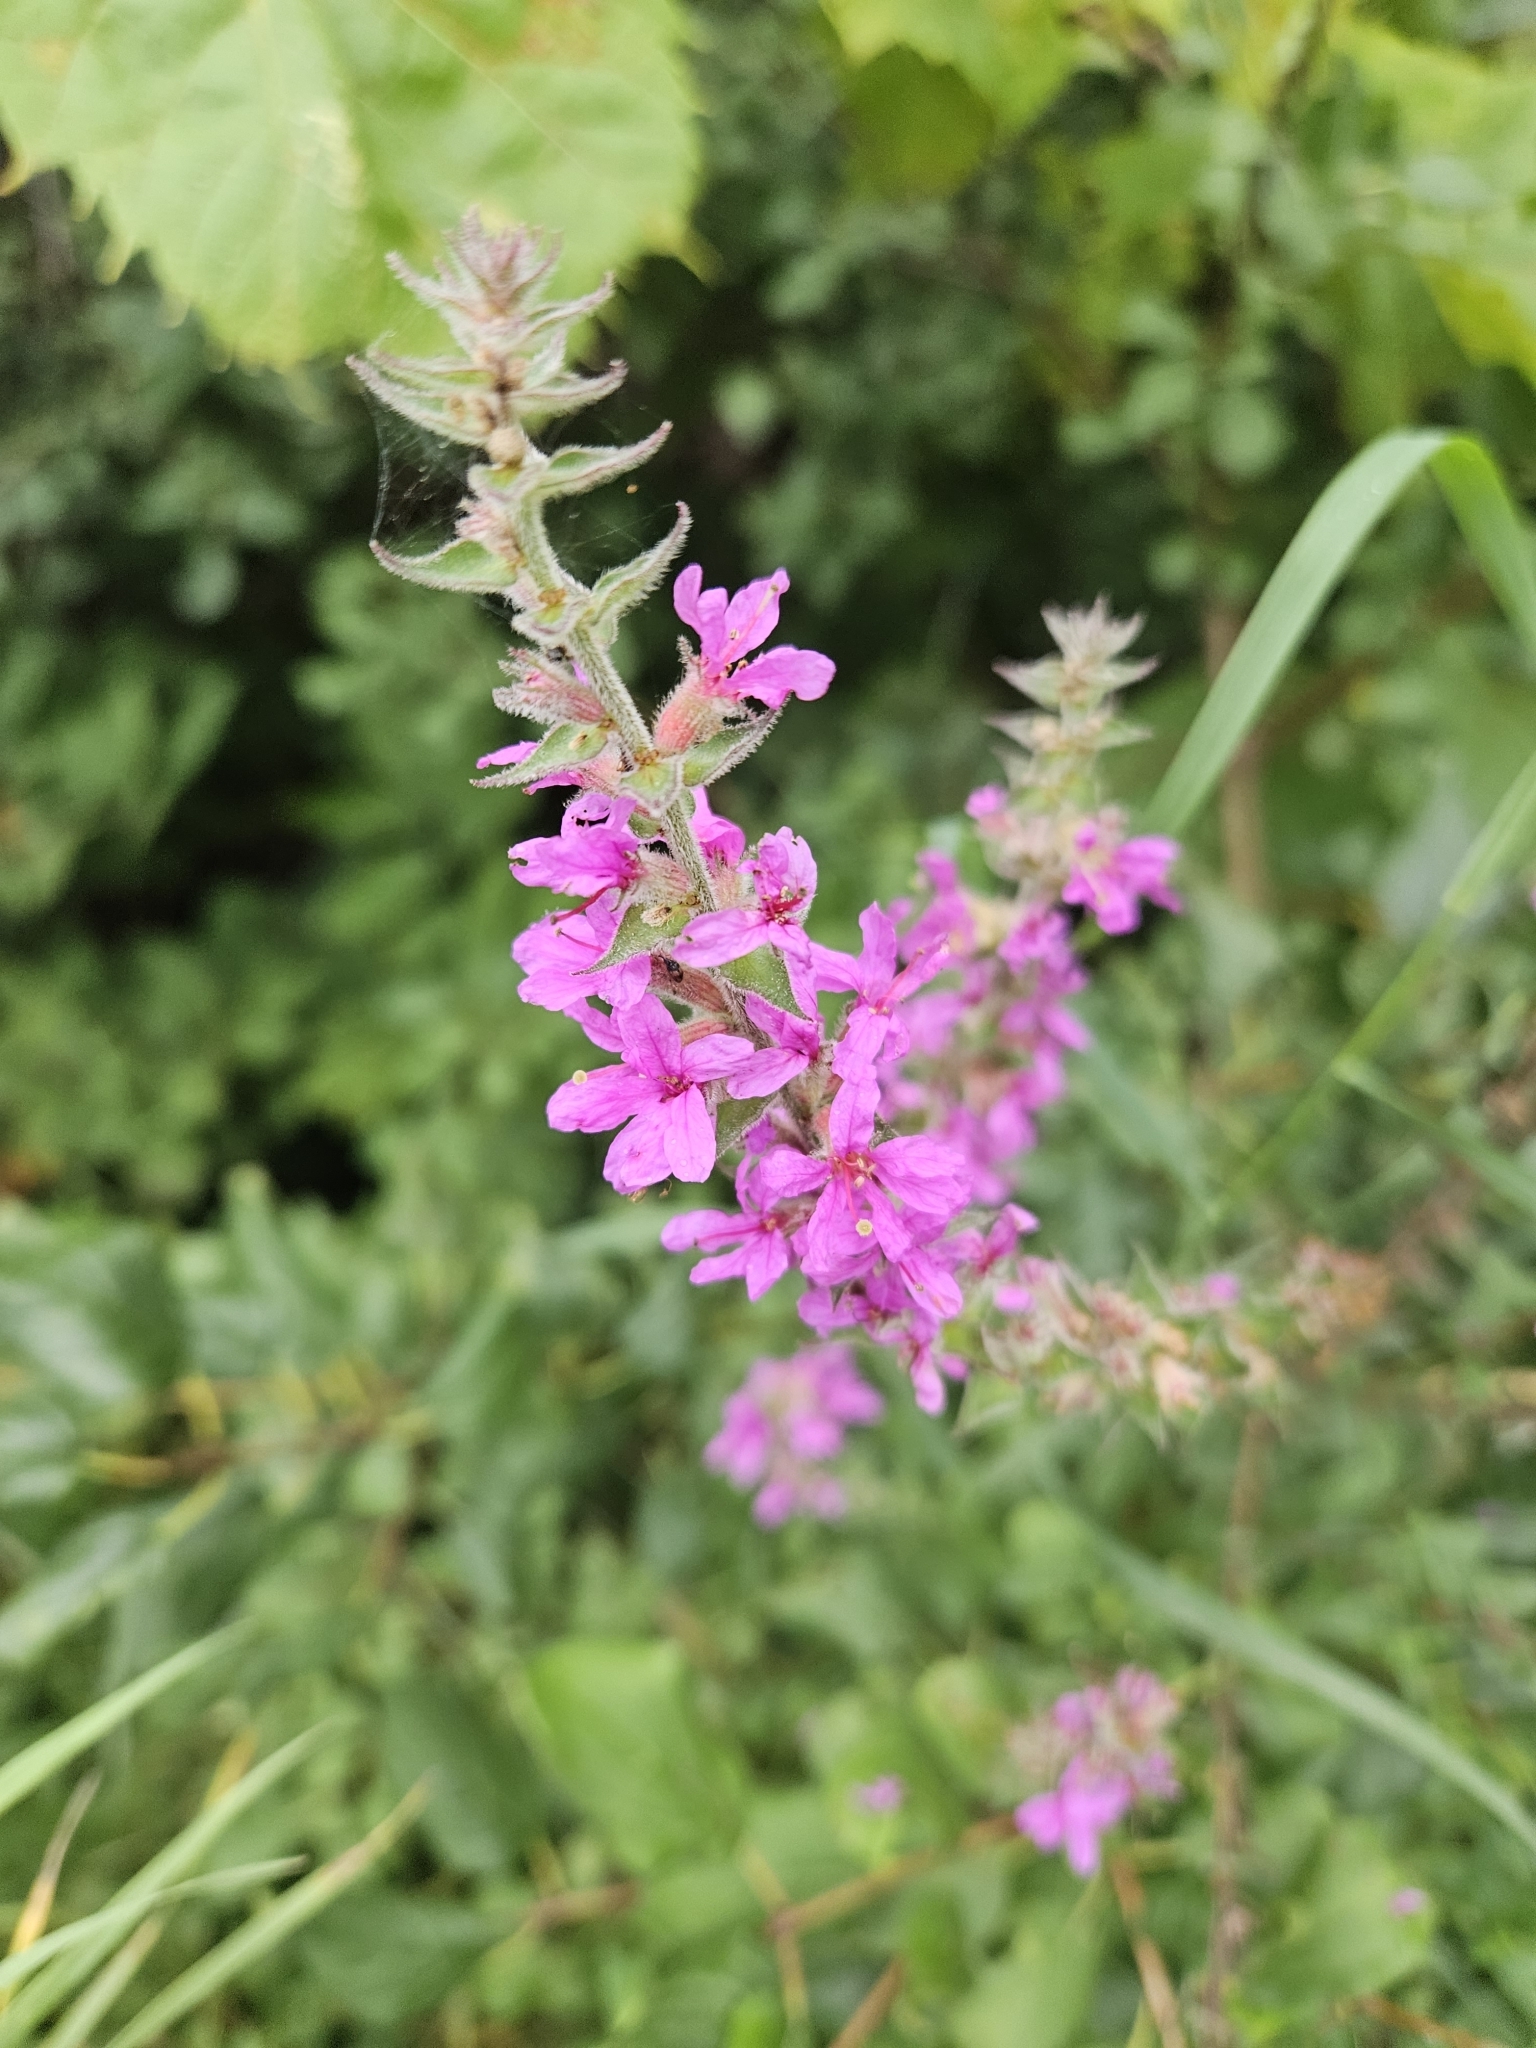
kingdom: Plantae
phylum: Tracheophyta
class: Magnoliopsida
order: Myrtales
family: Lythraceae
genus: Lythrum
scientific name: Lythrum salicaria
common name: Purple loosestrife
